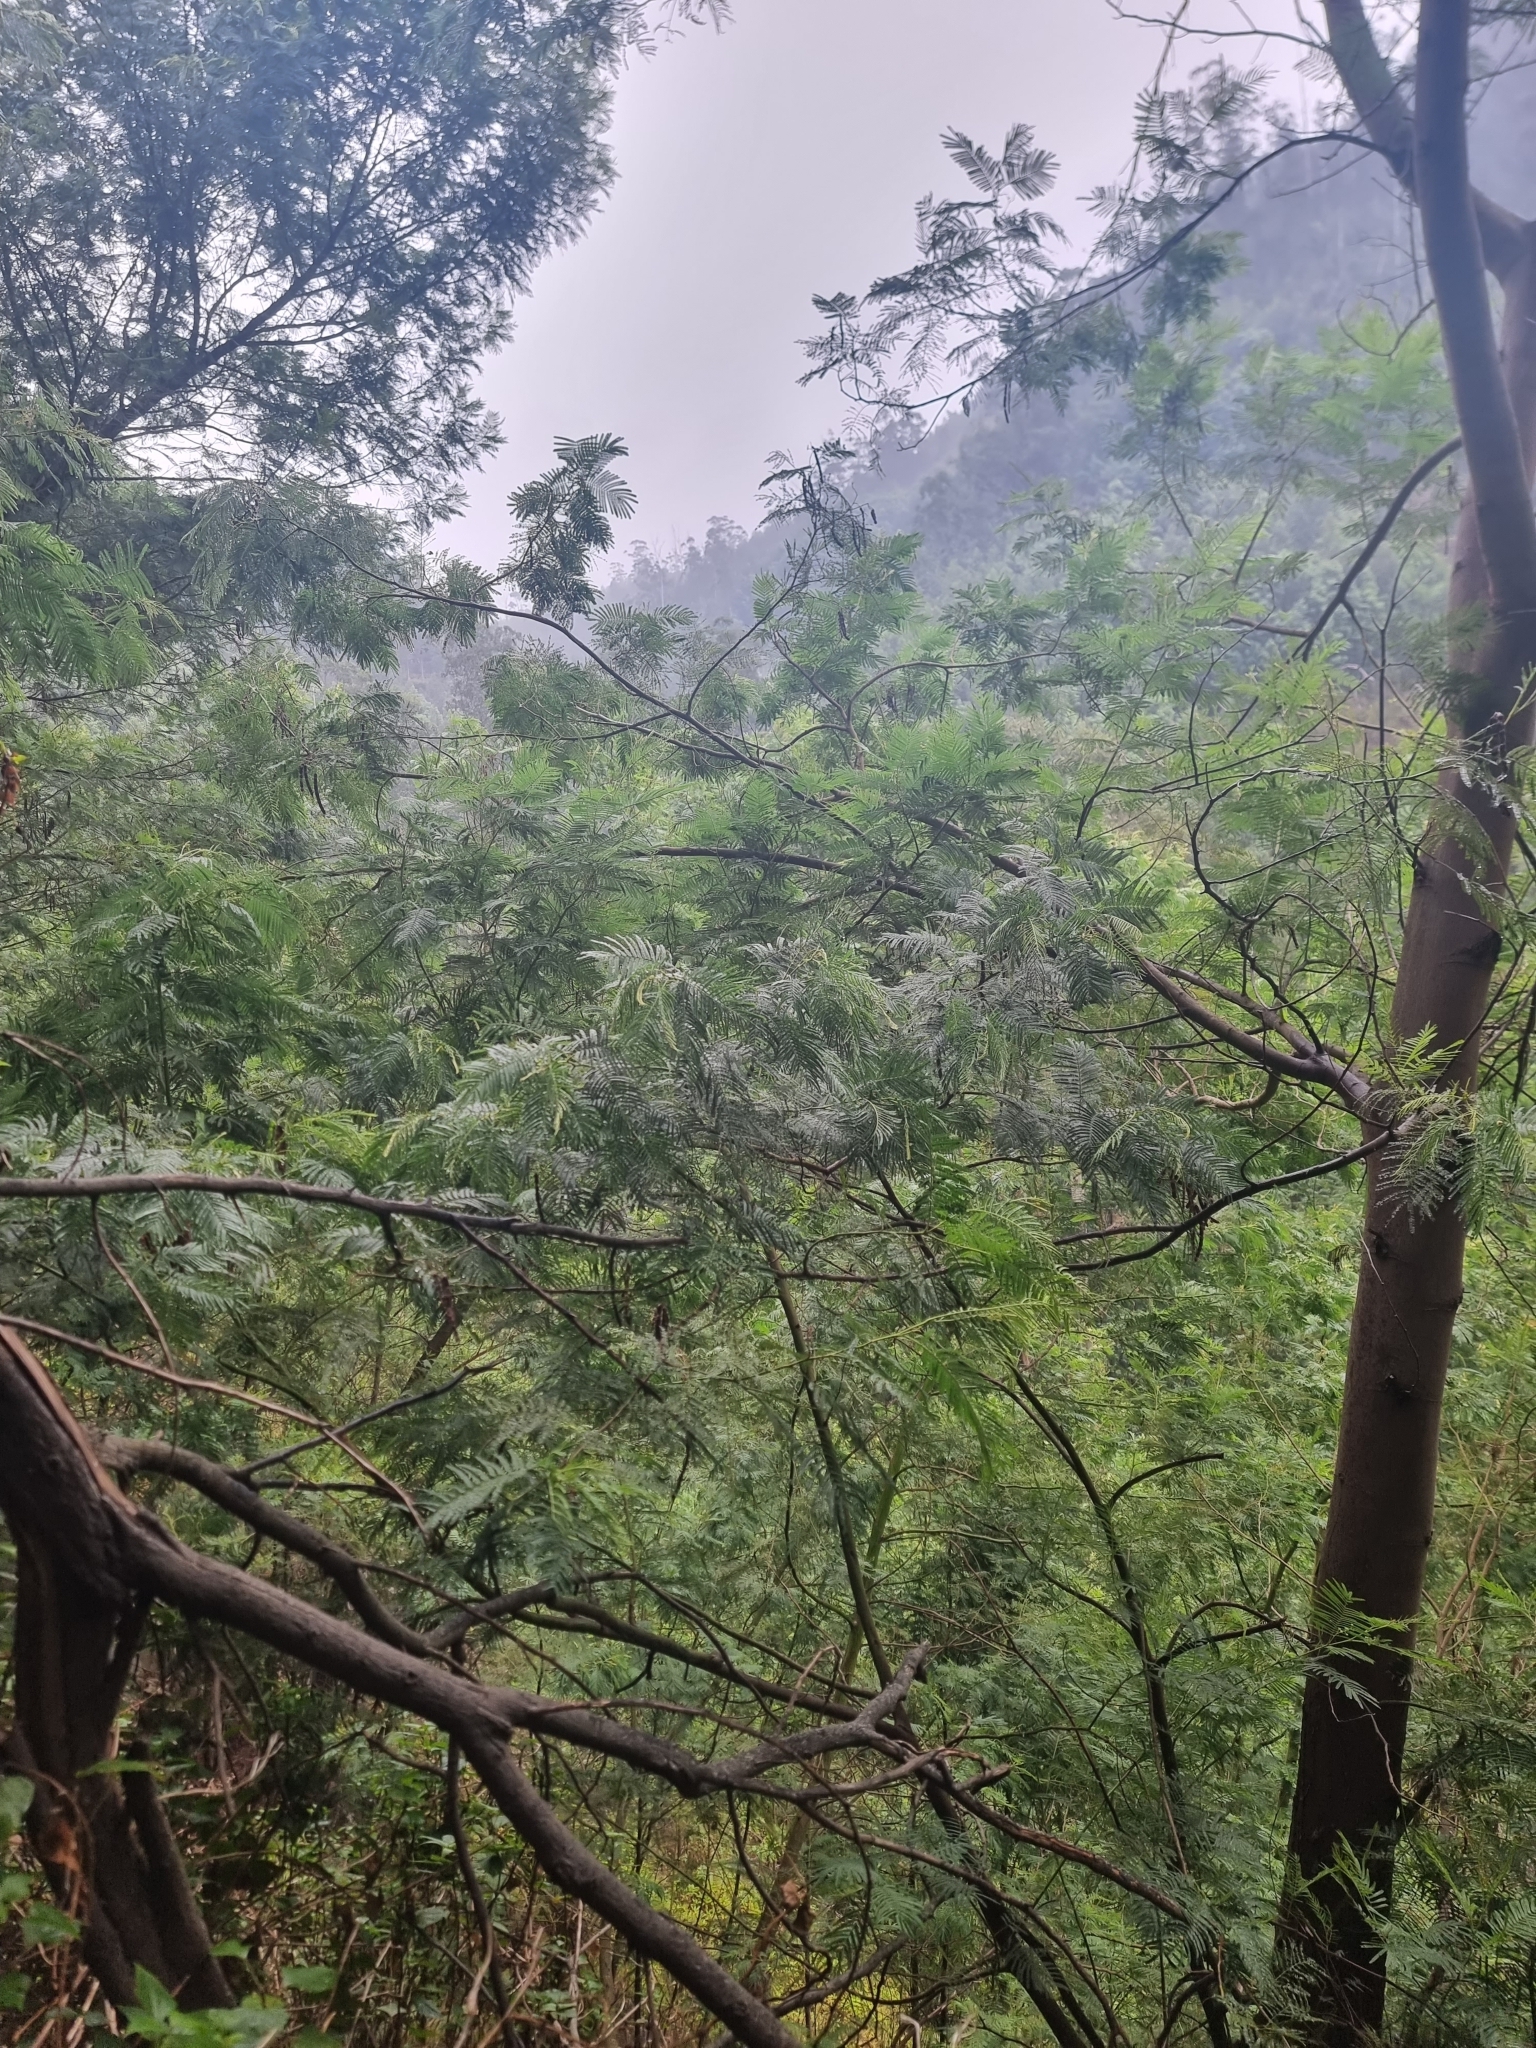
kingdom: Plantae
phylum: Tracheophyta
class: Magnoliopsida
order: Fabales
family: Fabaceae
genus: Acacia
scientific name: Acacia mearnsii
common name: Black wattle
